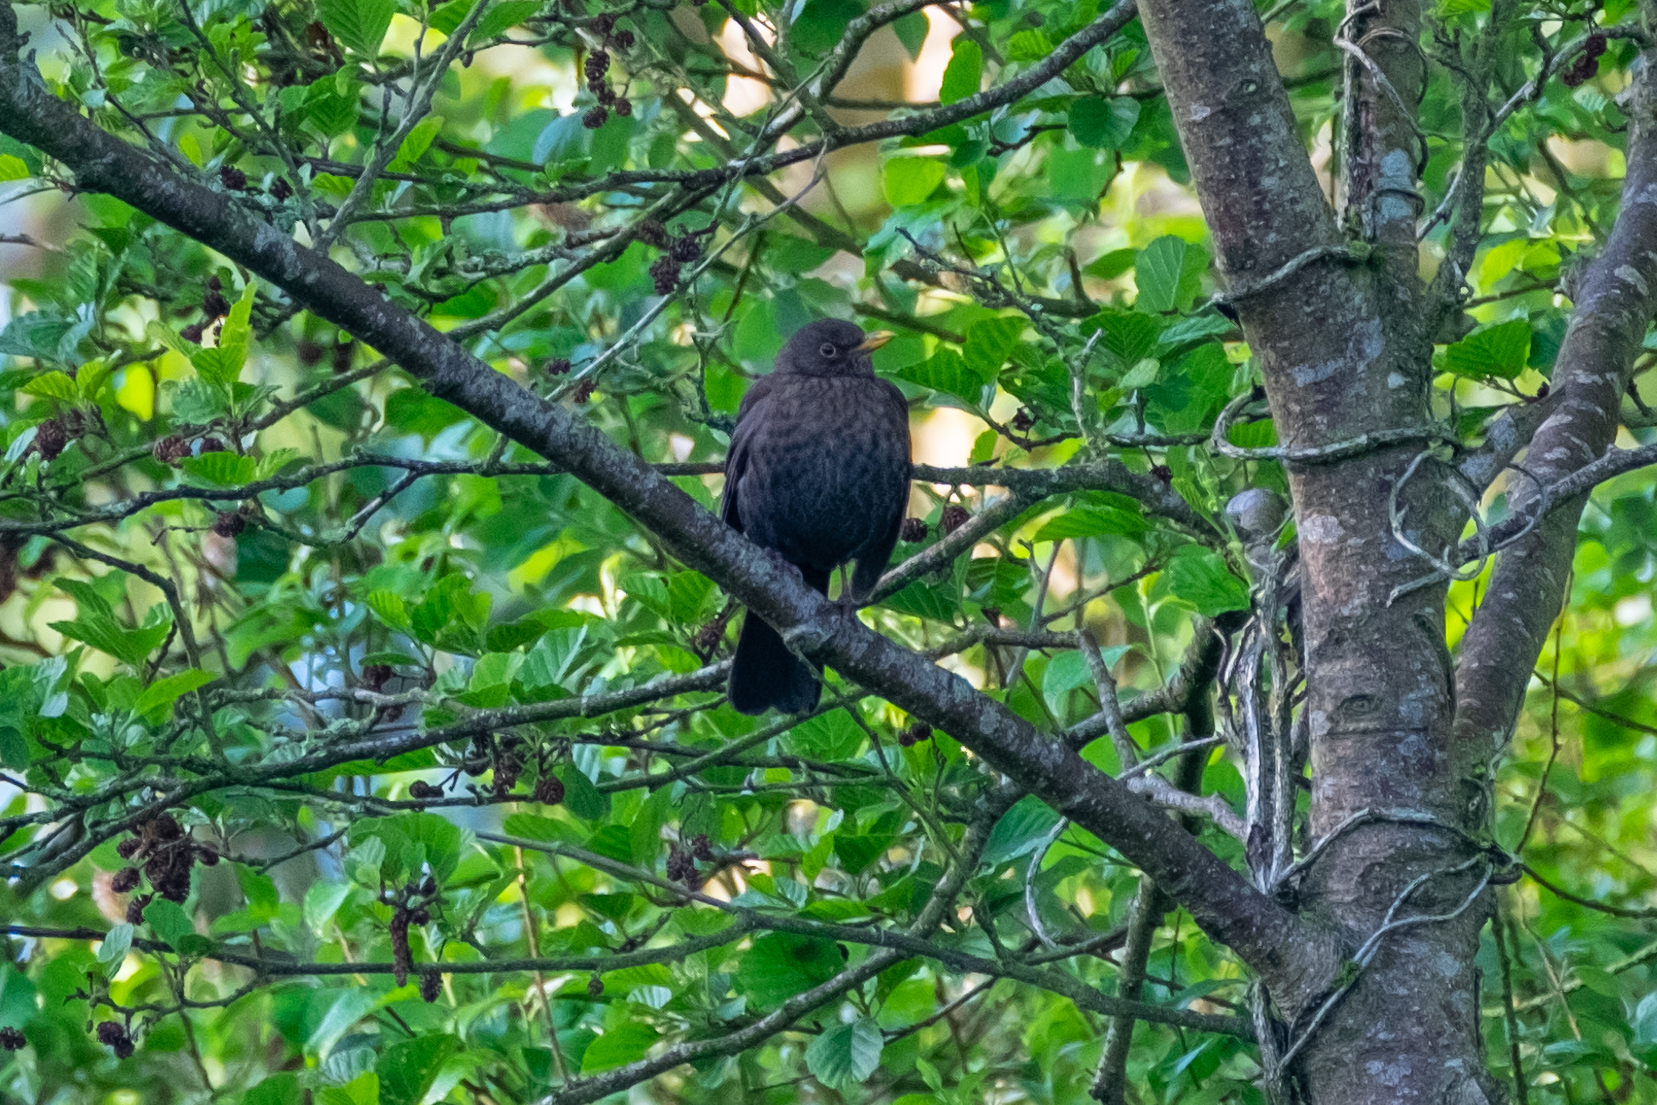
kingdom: Animalia
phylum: Chordata
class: Aves
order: Passeriformes
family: Turdidae
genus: Turdus
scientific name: Turdus merula
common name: Common blackbird
